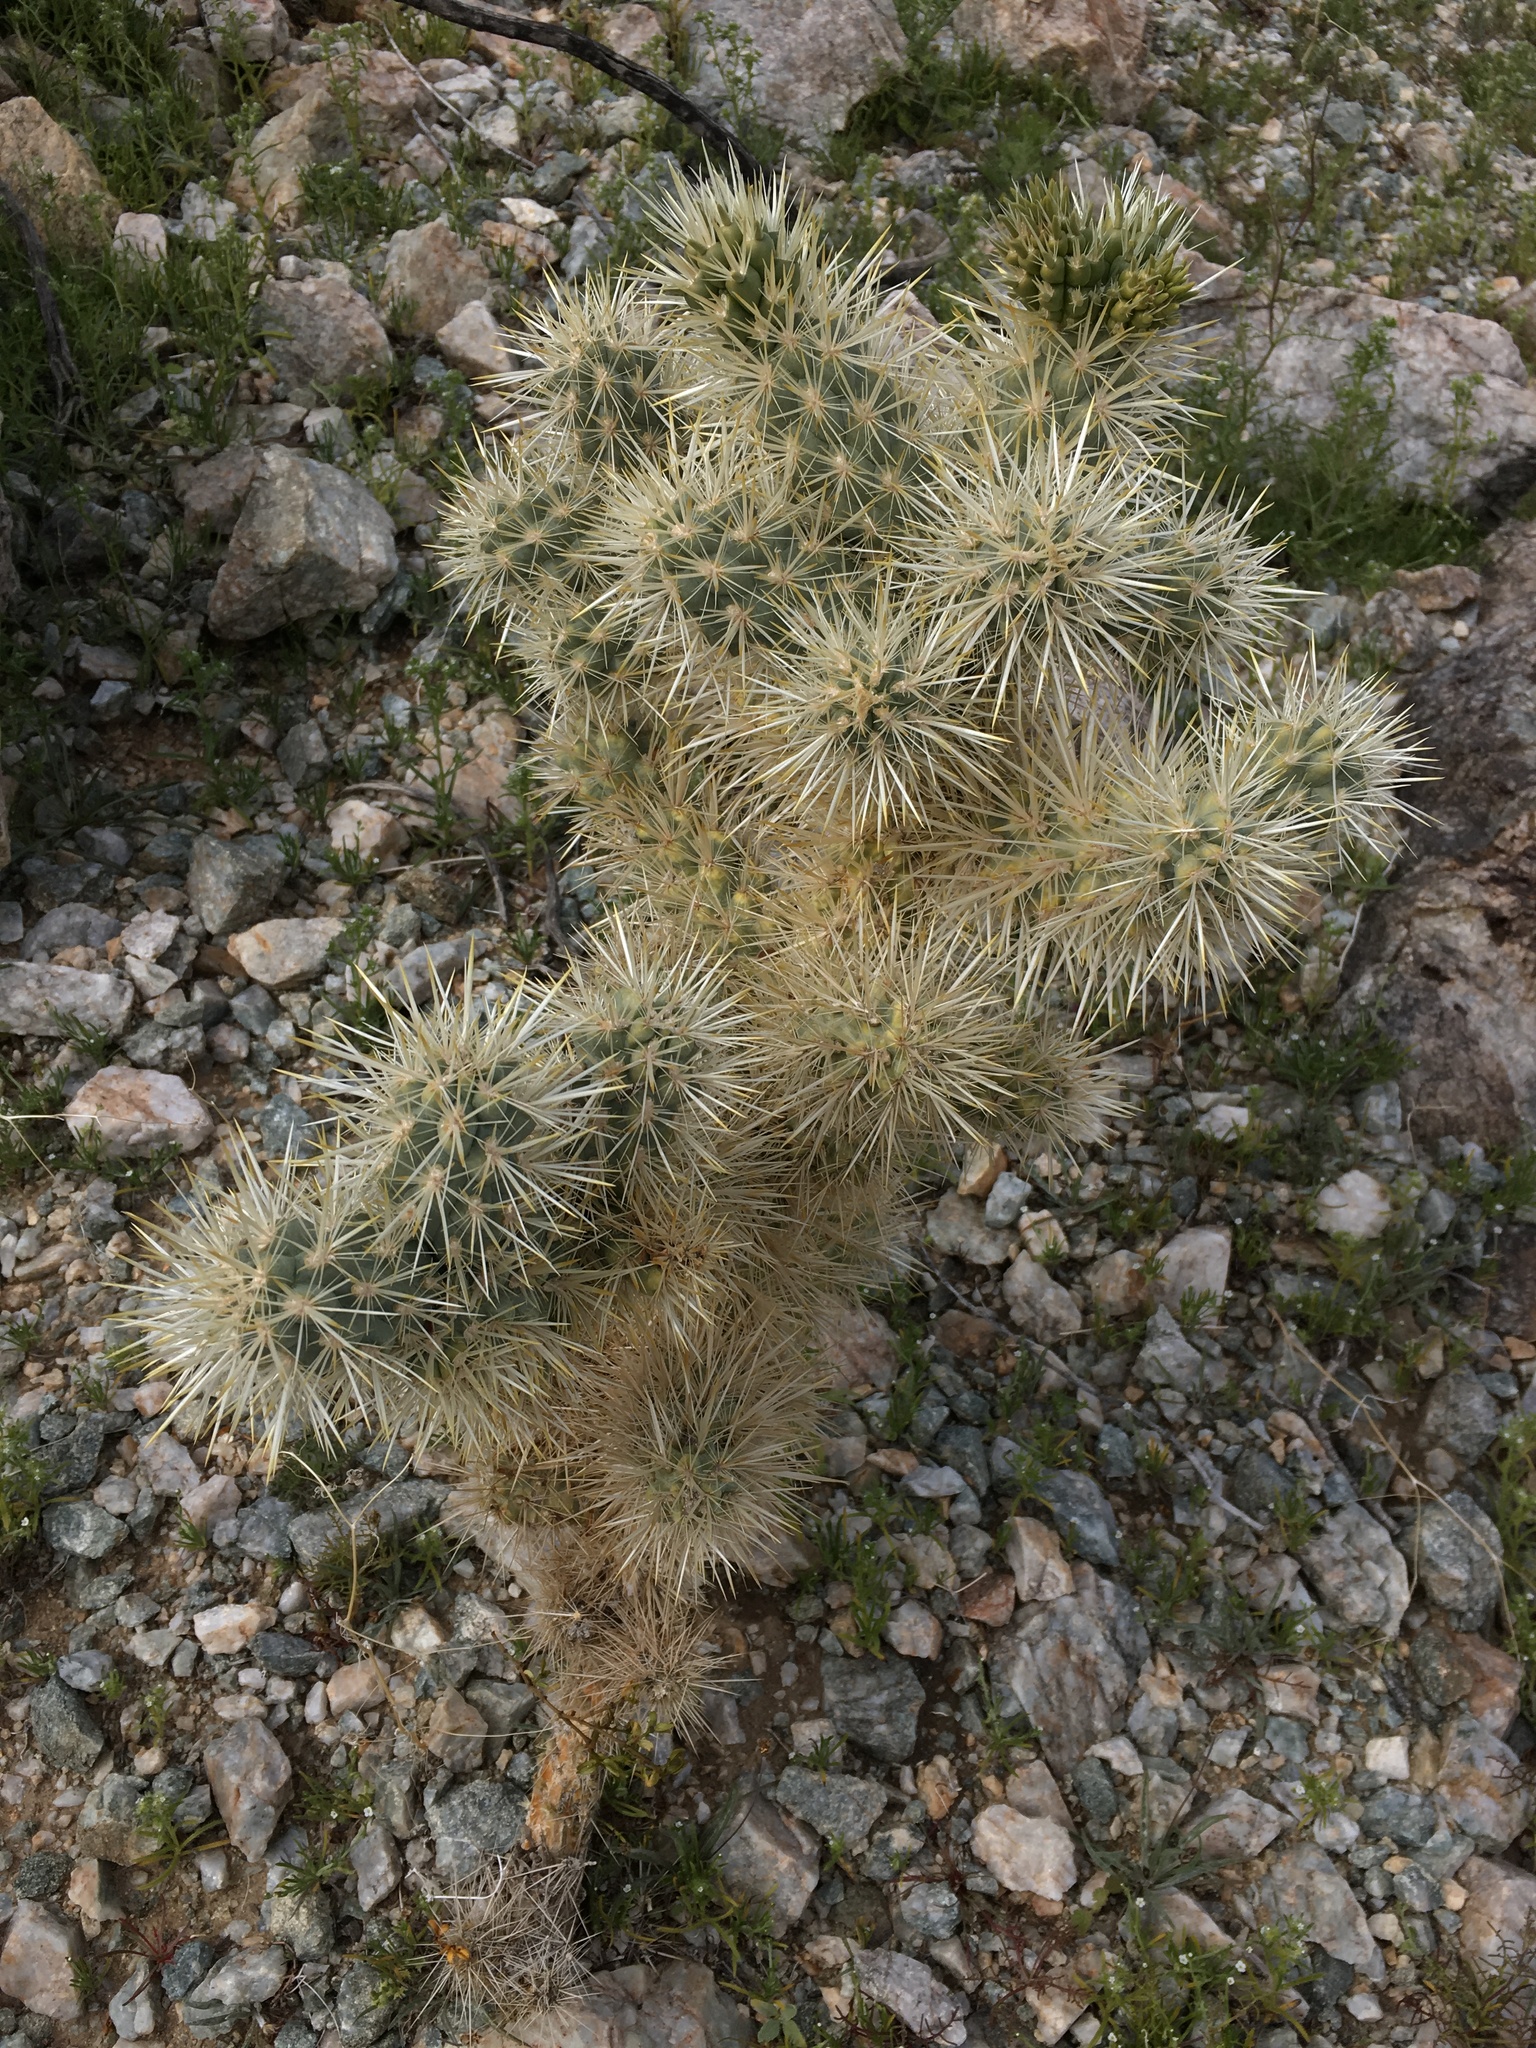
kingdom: Plantae
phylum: Tracheophyta
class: Magnoliopsida
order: Caryophyllales
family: Cactaceae
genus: Cylindropuntia
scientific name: Cylindropuntia echinocarpa
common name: Ground cholla
